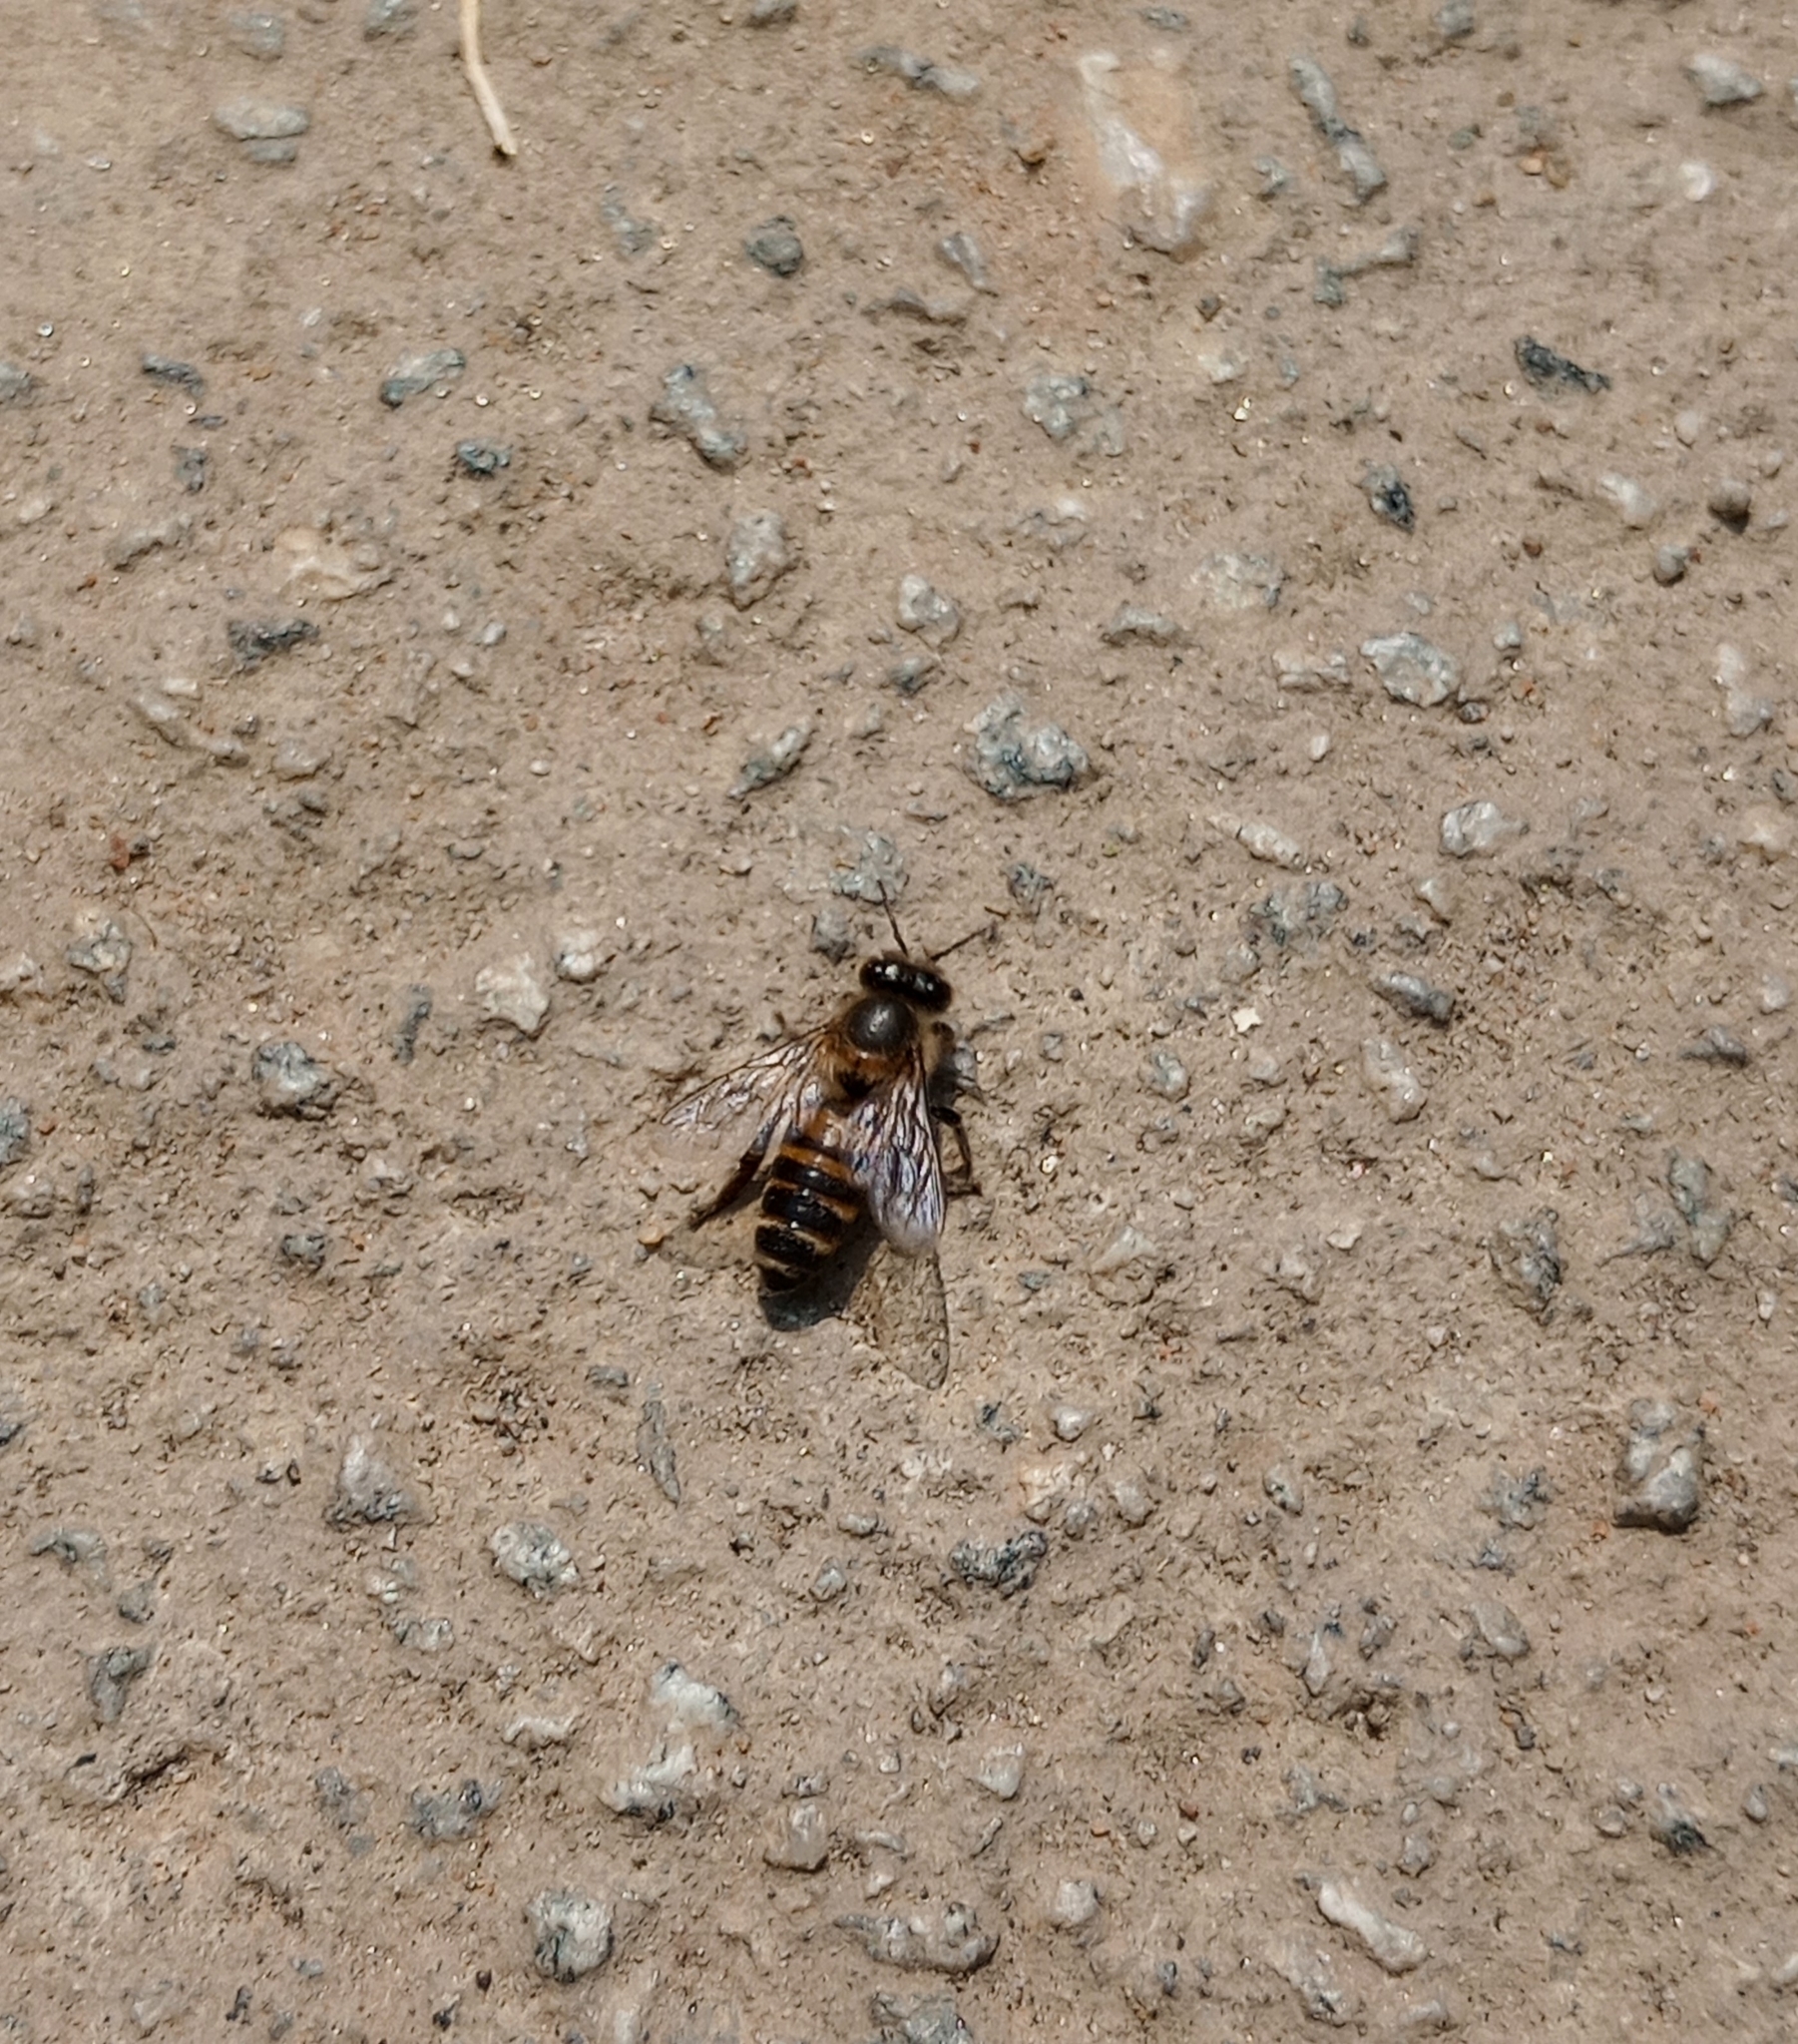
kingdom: Animalia
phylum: Arthropoda
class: Insecta
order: Hymenoptera
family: Apidae
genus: Apis
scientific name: Apis cerana
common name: Honey bee
